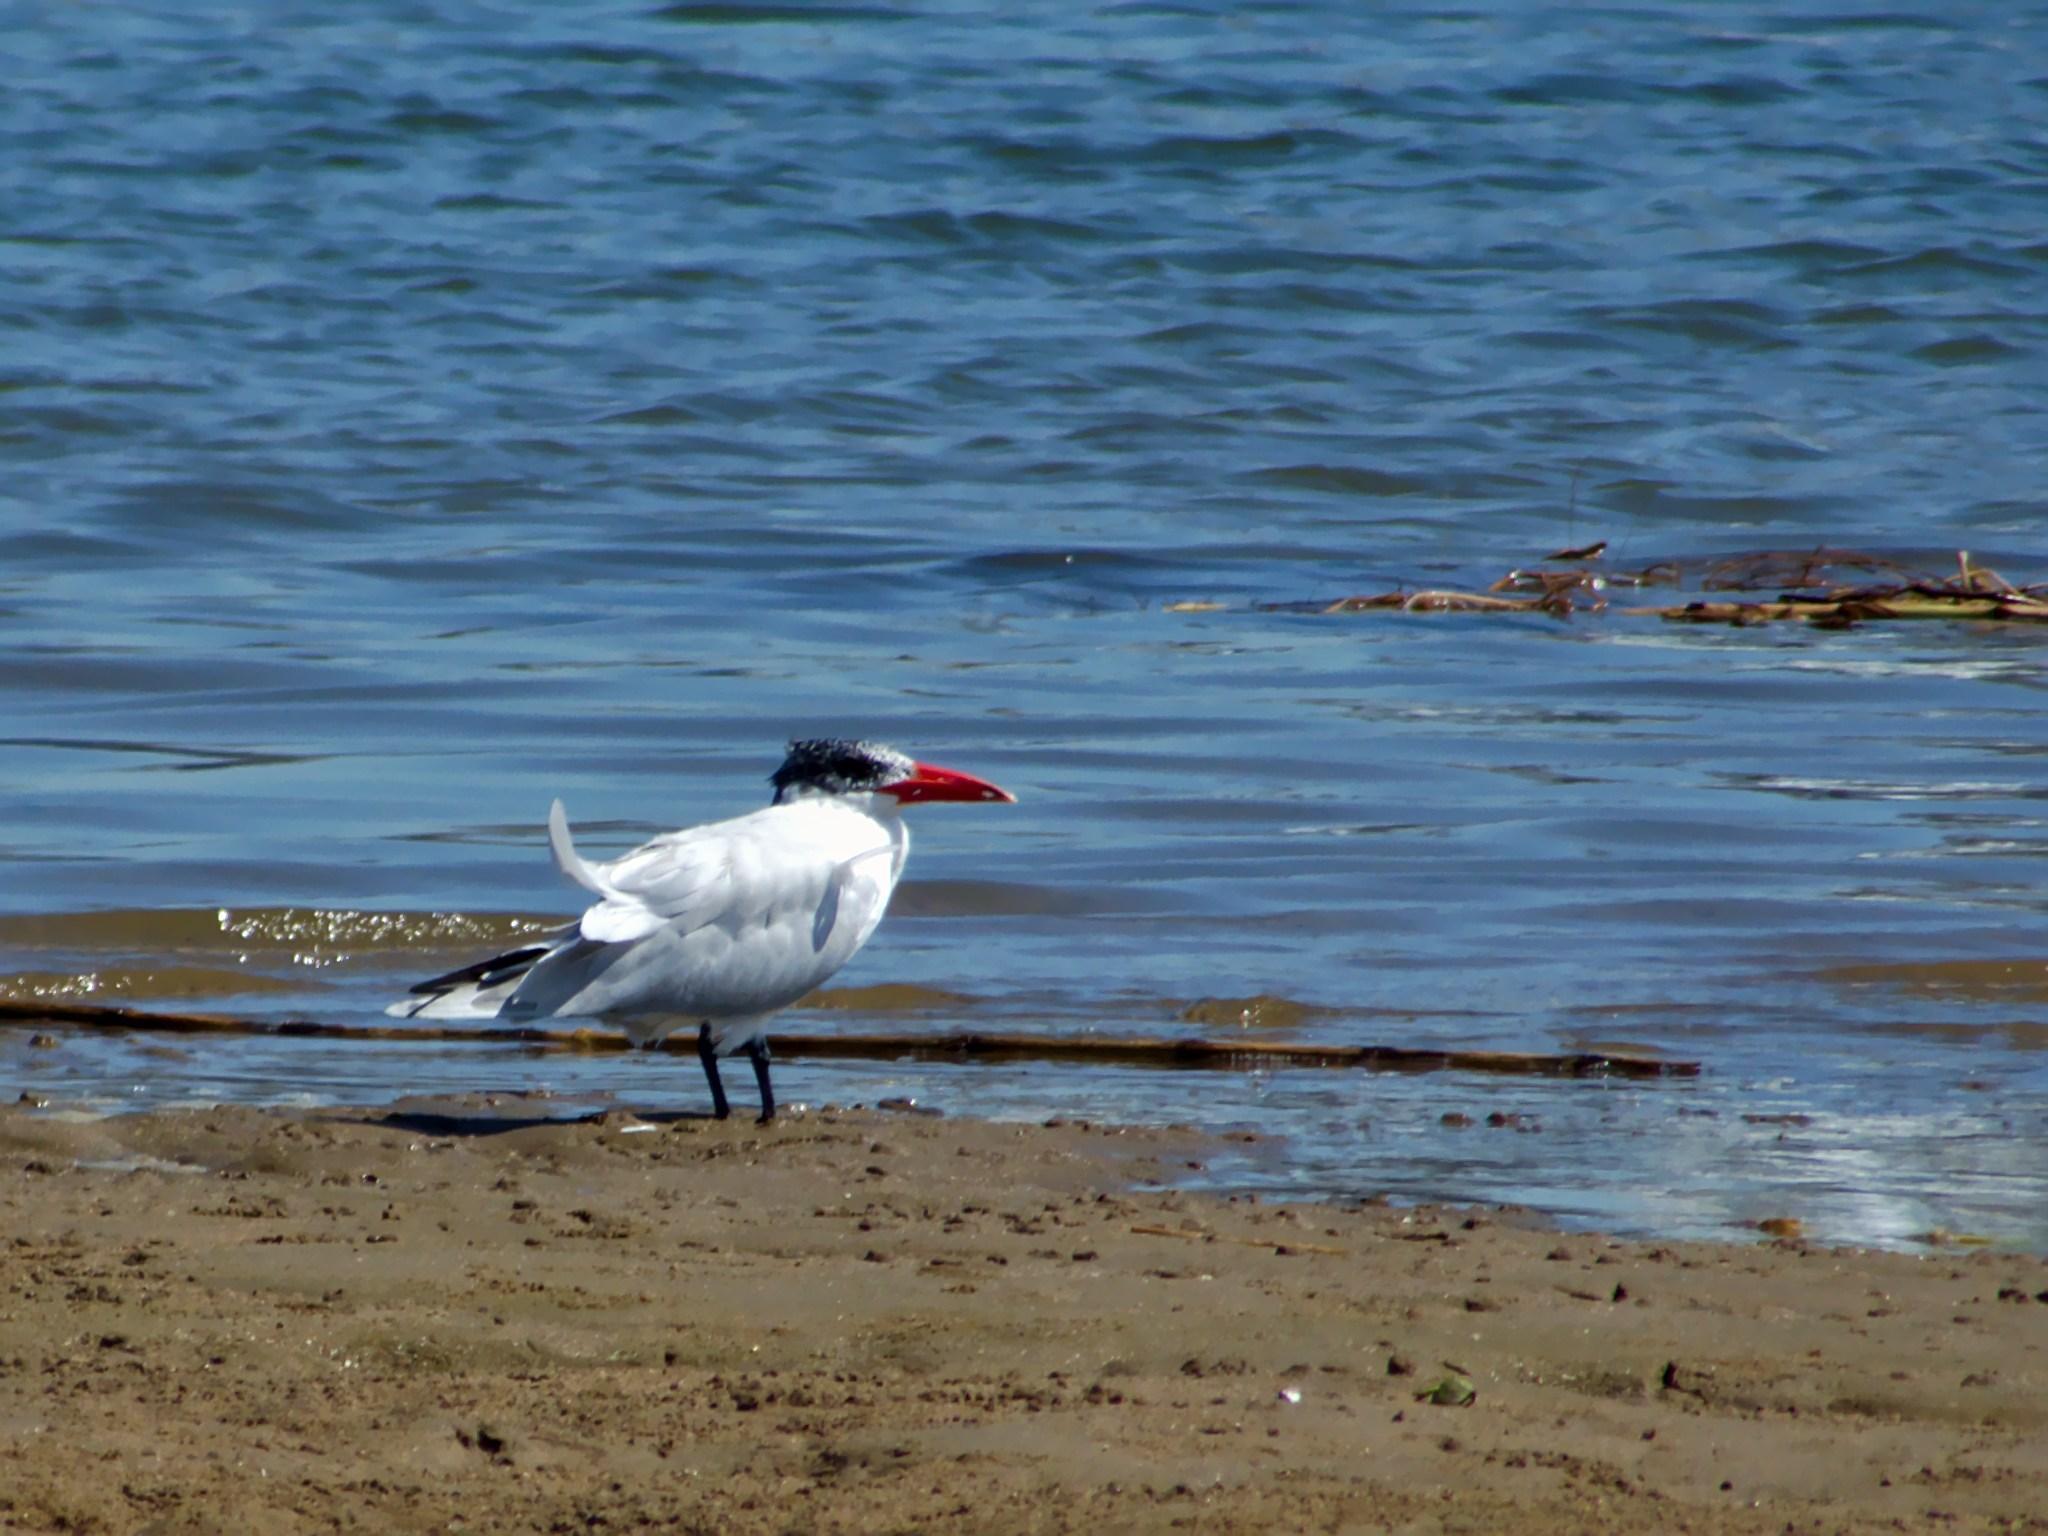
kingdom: Animalia
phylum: Chordata
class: Aves
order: Charadriiformes
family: Laridae
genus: Hydroprogne
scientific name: Hydroprogne caspia
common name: Caspian tern
